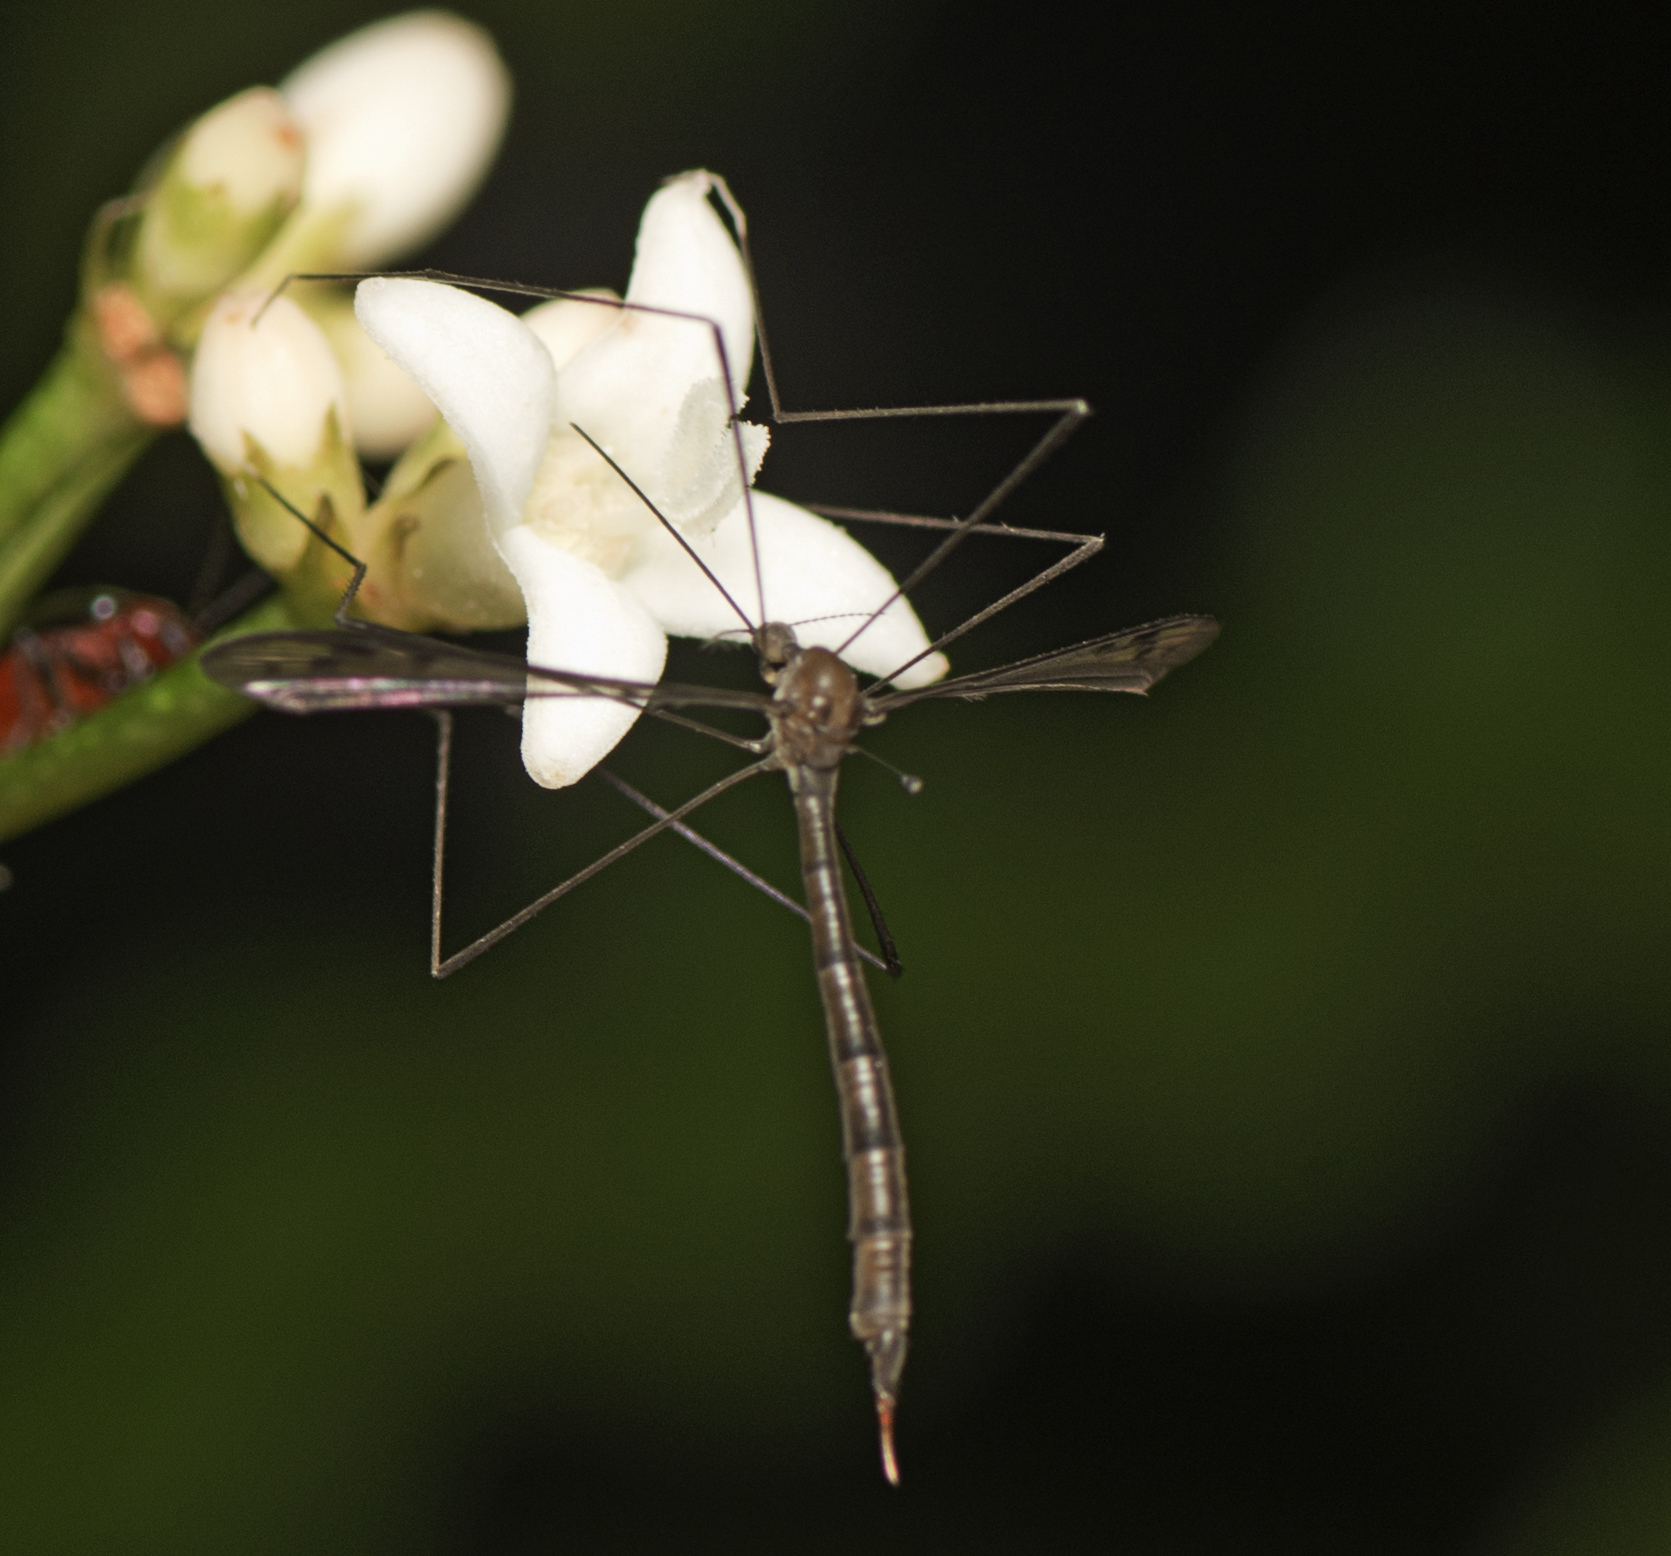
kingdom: Animalia
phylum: Arthropoda
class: Insecta
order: Diptera
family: Limoniidae
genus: Elephantomyia
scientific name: Elephantomyia fumicosta
